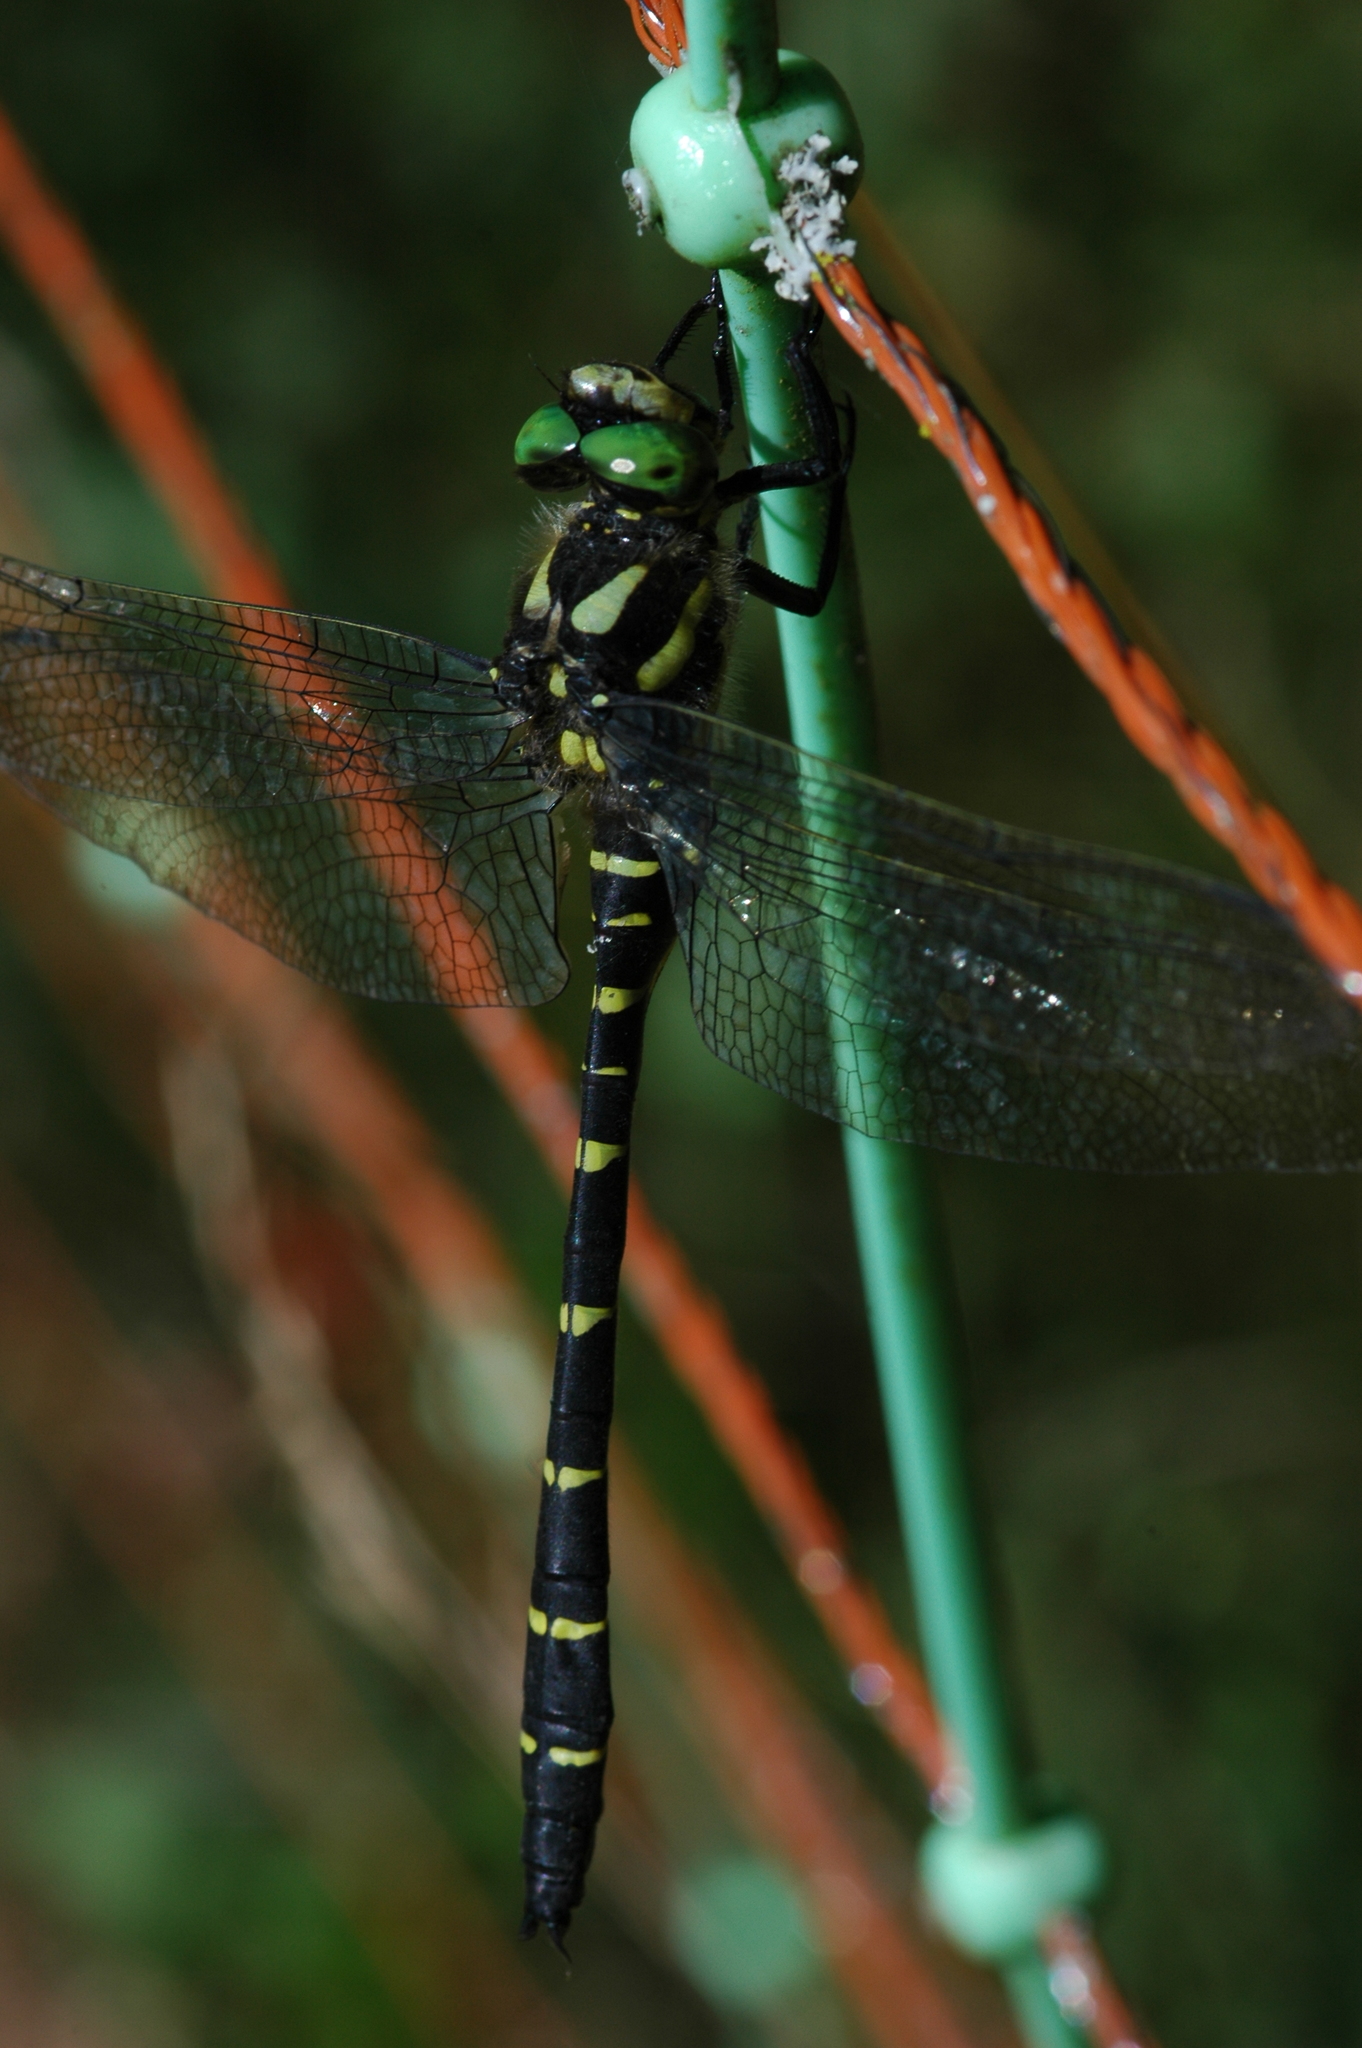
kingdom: Animalia
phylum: Arthropoda
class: Insecta
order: Odonata
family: Cordulegastridae
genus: Cordulegaster
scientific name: Cordulegaster bidentata
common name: Sombre goldenring
